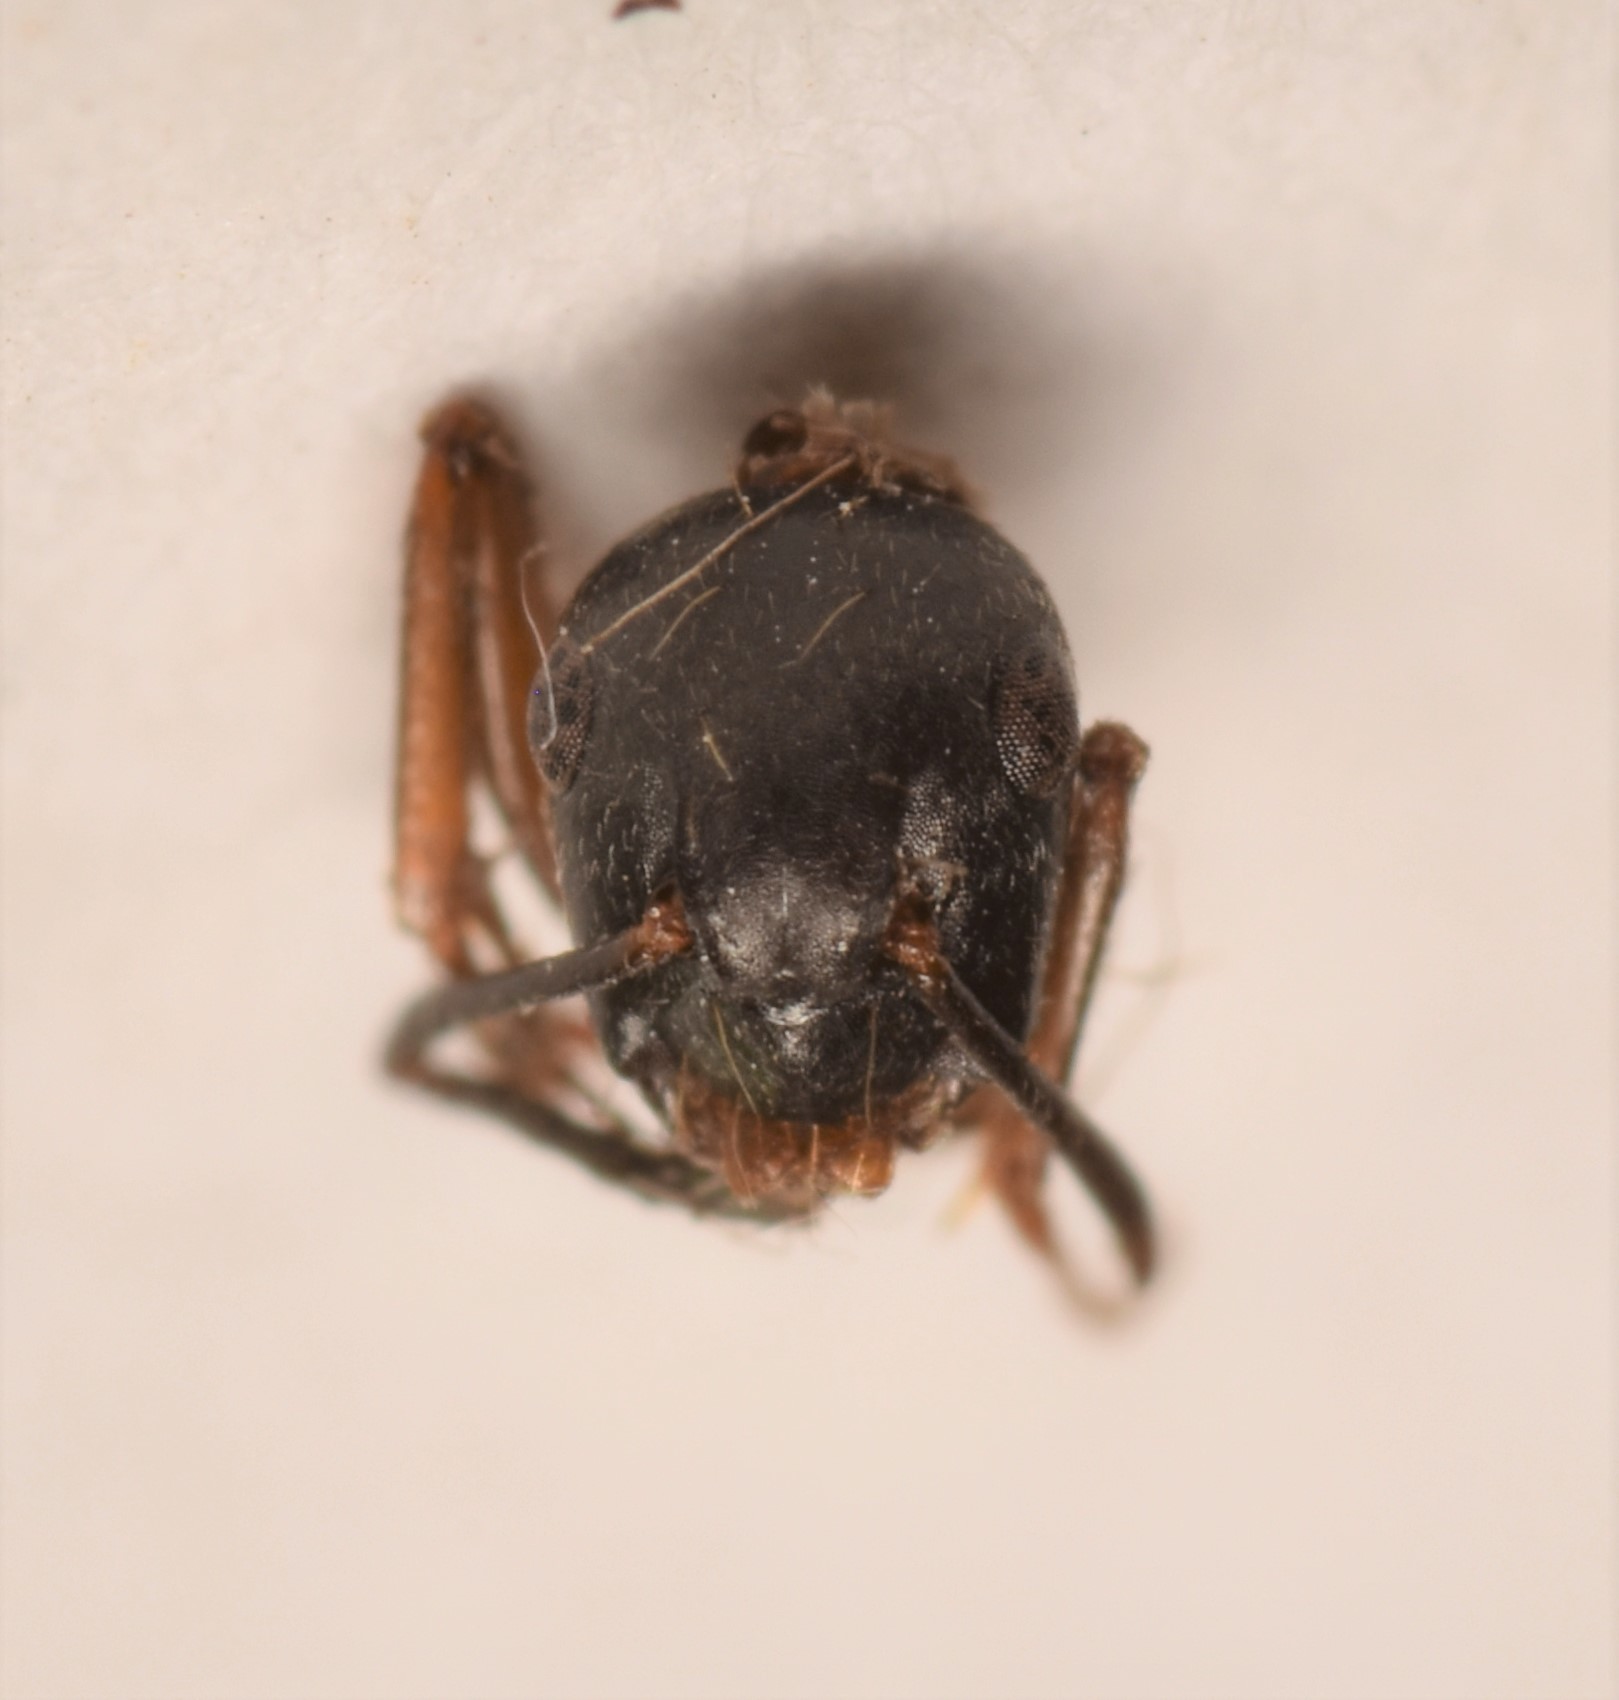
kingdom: Animalia
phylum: Arthropoda
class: Insecta
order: Hymenoptera
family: Formicidae
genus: Camponotus
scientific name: Camponotus modoc
